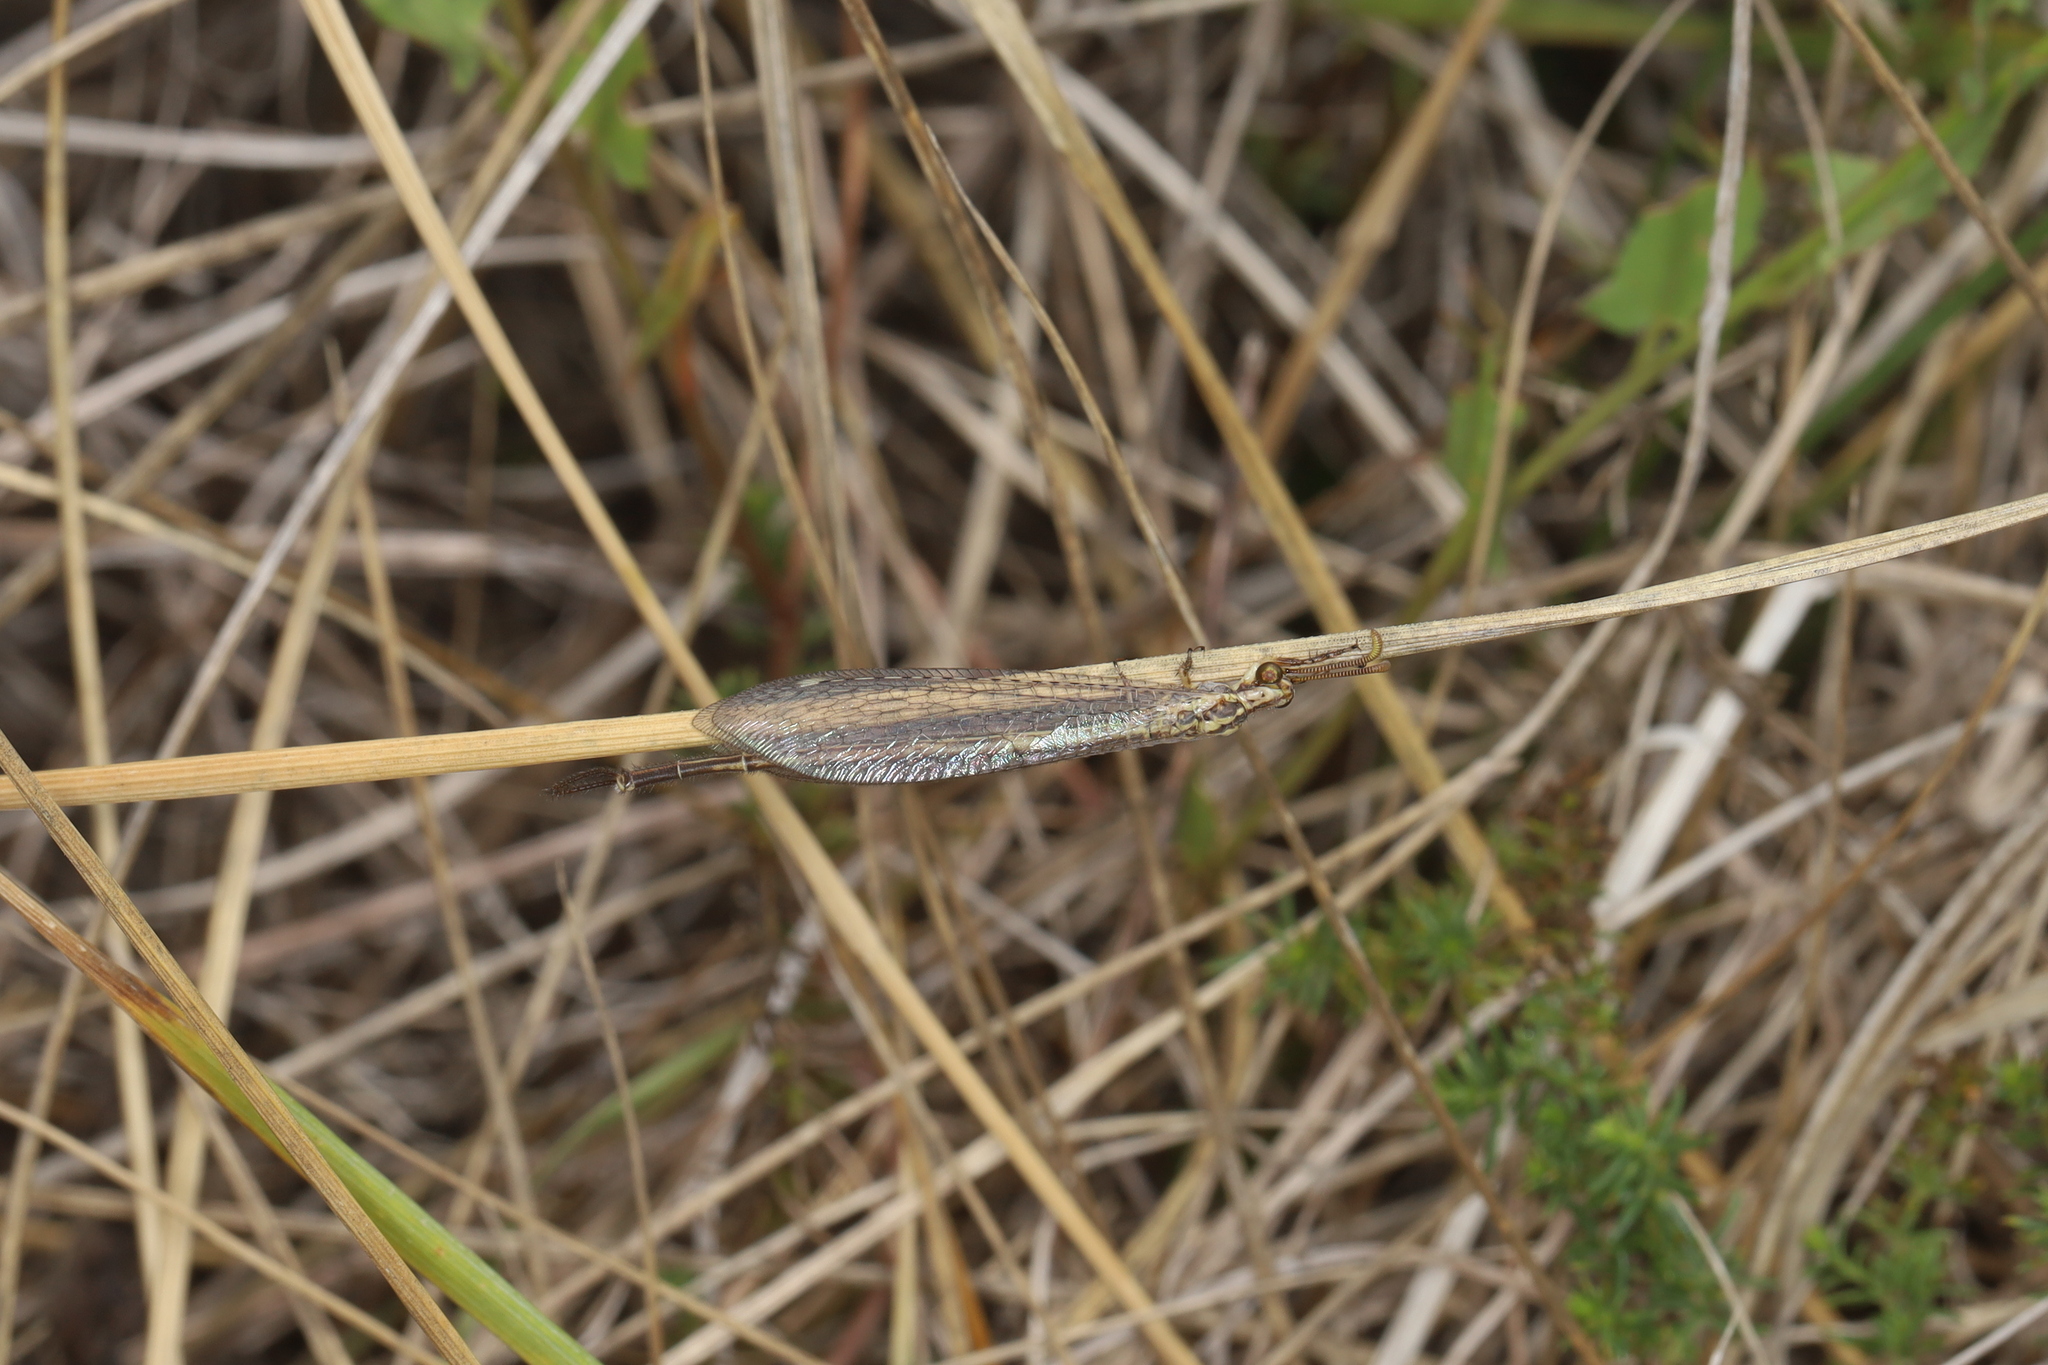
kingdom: Animalia
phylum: Arthropoda
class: Insecta
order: Neuroptera
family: Myrmeleontidae
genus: Macronemurus
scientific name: Macronemurus appendiculatus
